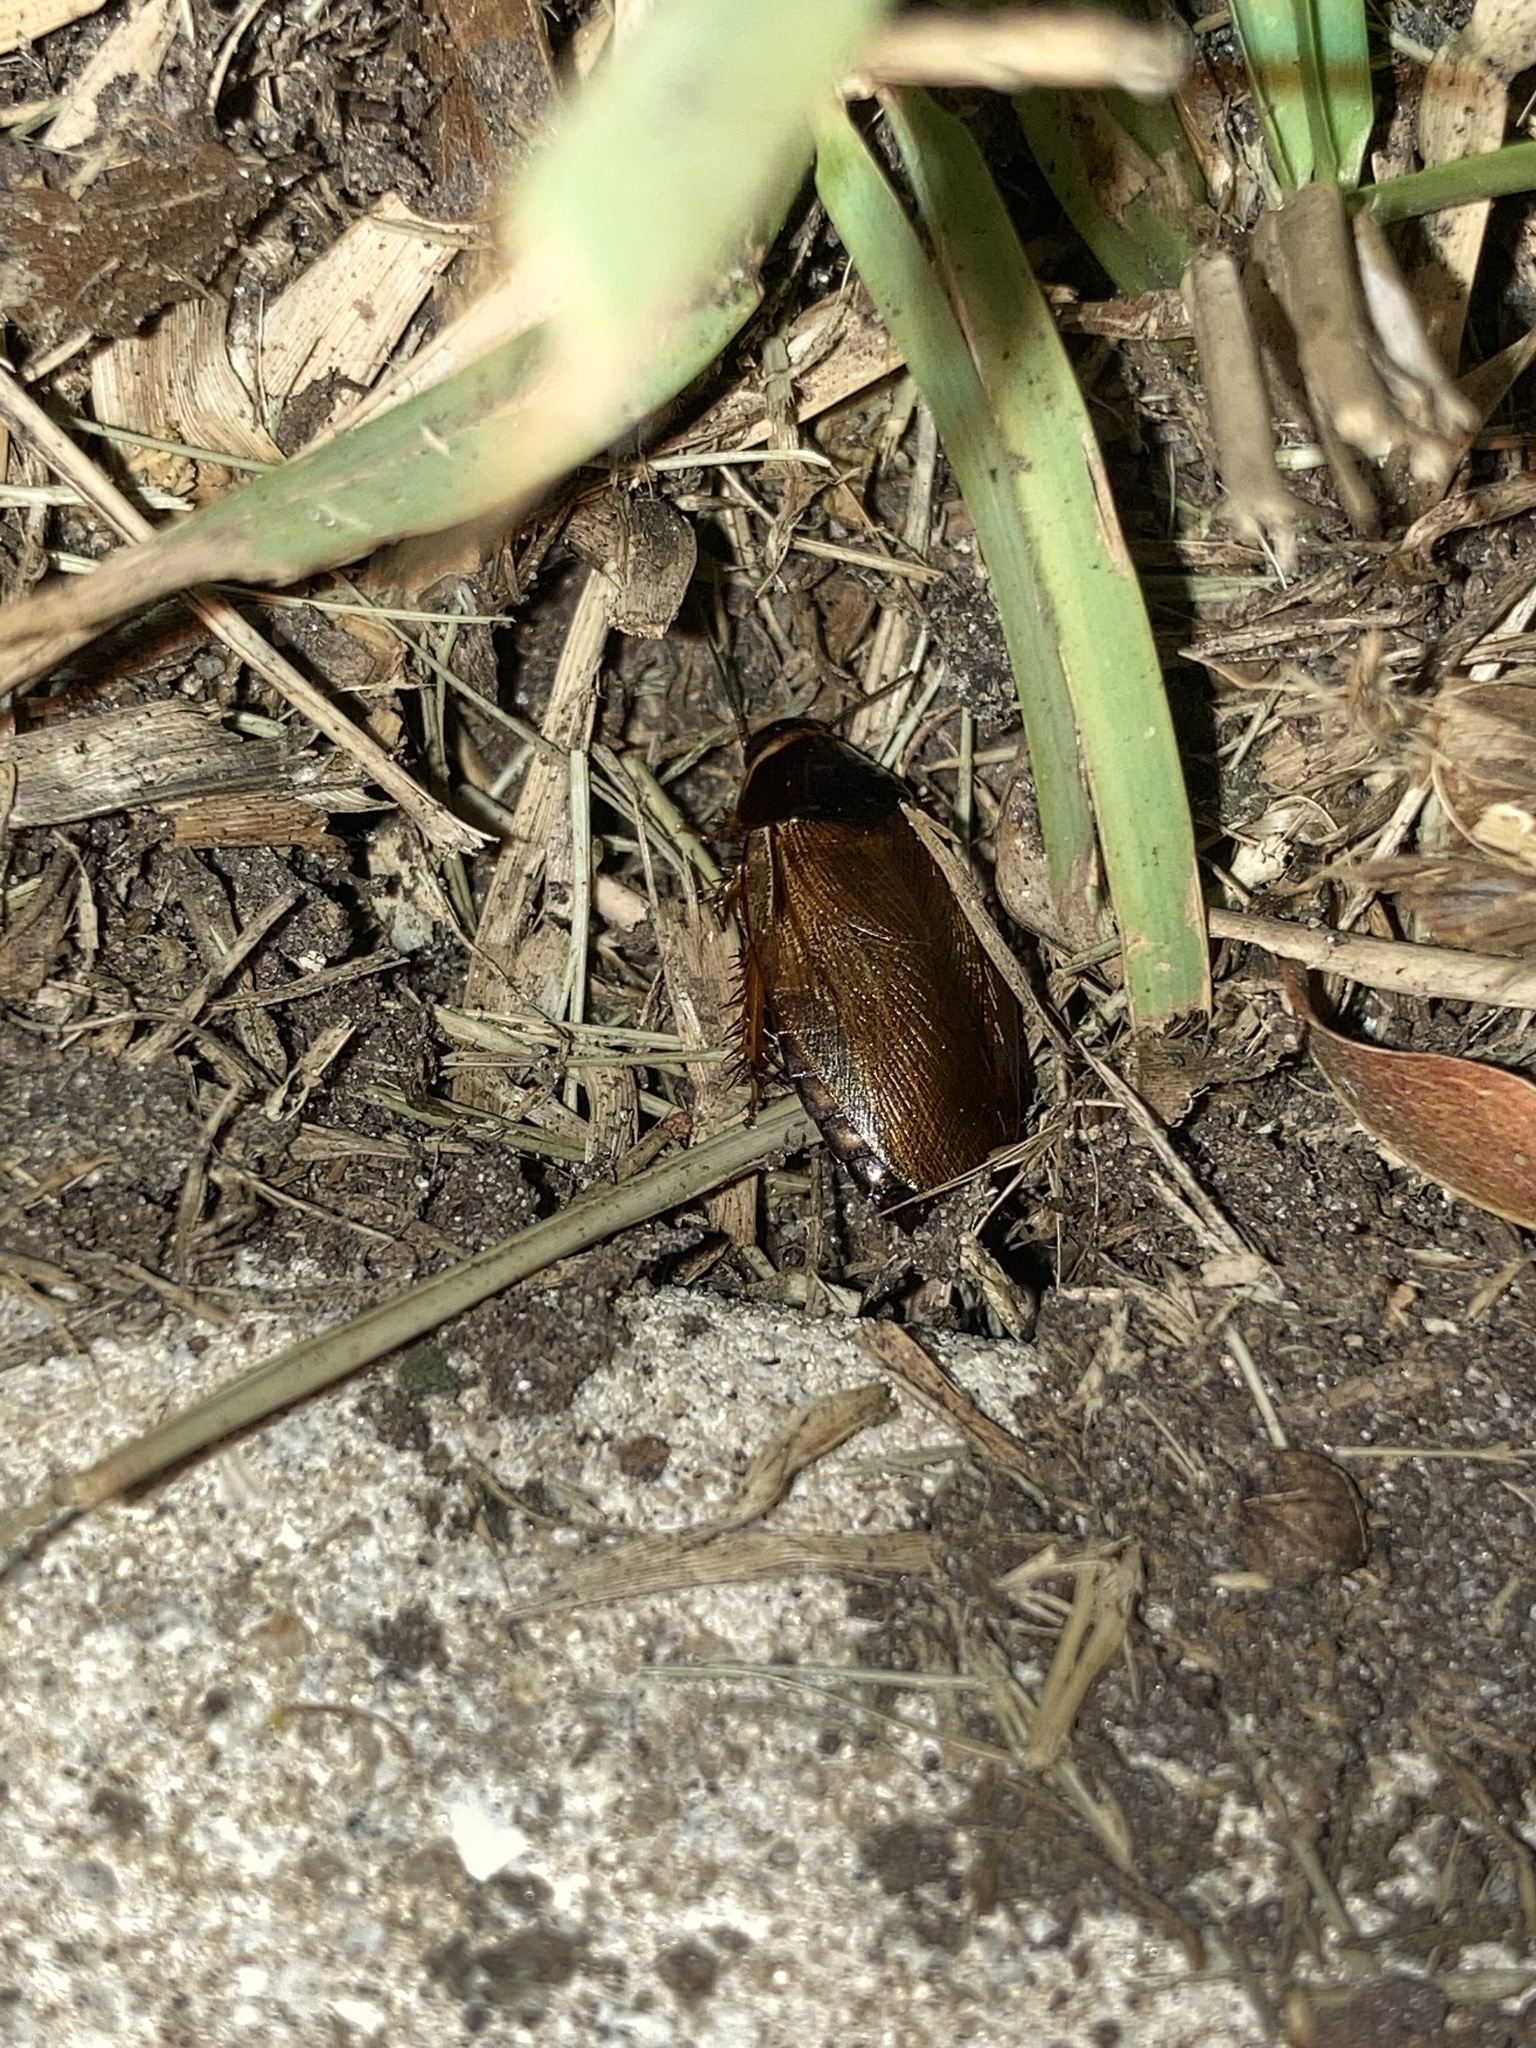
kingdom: Animalia
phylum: Arthropoda
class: Insecta
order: Blattodea
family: Blaberidae
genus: Pycnoscelus
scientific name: Pycnoscelus surinamensis
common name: Surinam cockroach
